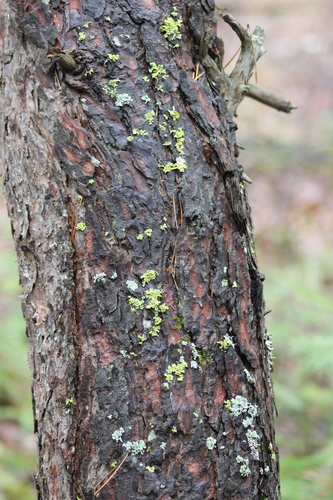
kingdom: Fungi
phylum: Ascomycota
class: Lecanoromycetes
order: Lecanorales
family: Parmeliaceae
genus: Vulpicida
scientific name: Vulpicida pinastri
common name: Powdered sunshine lichen
